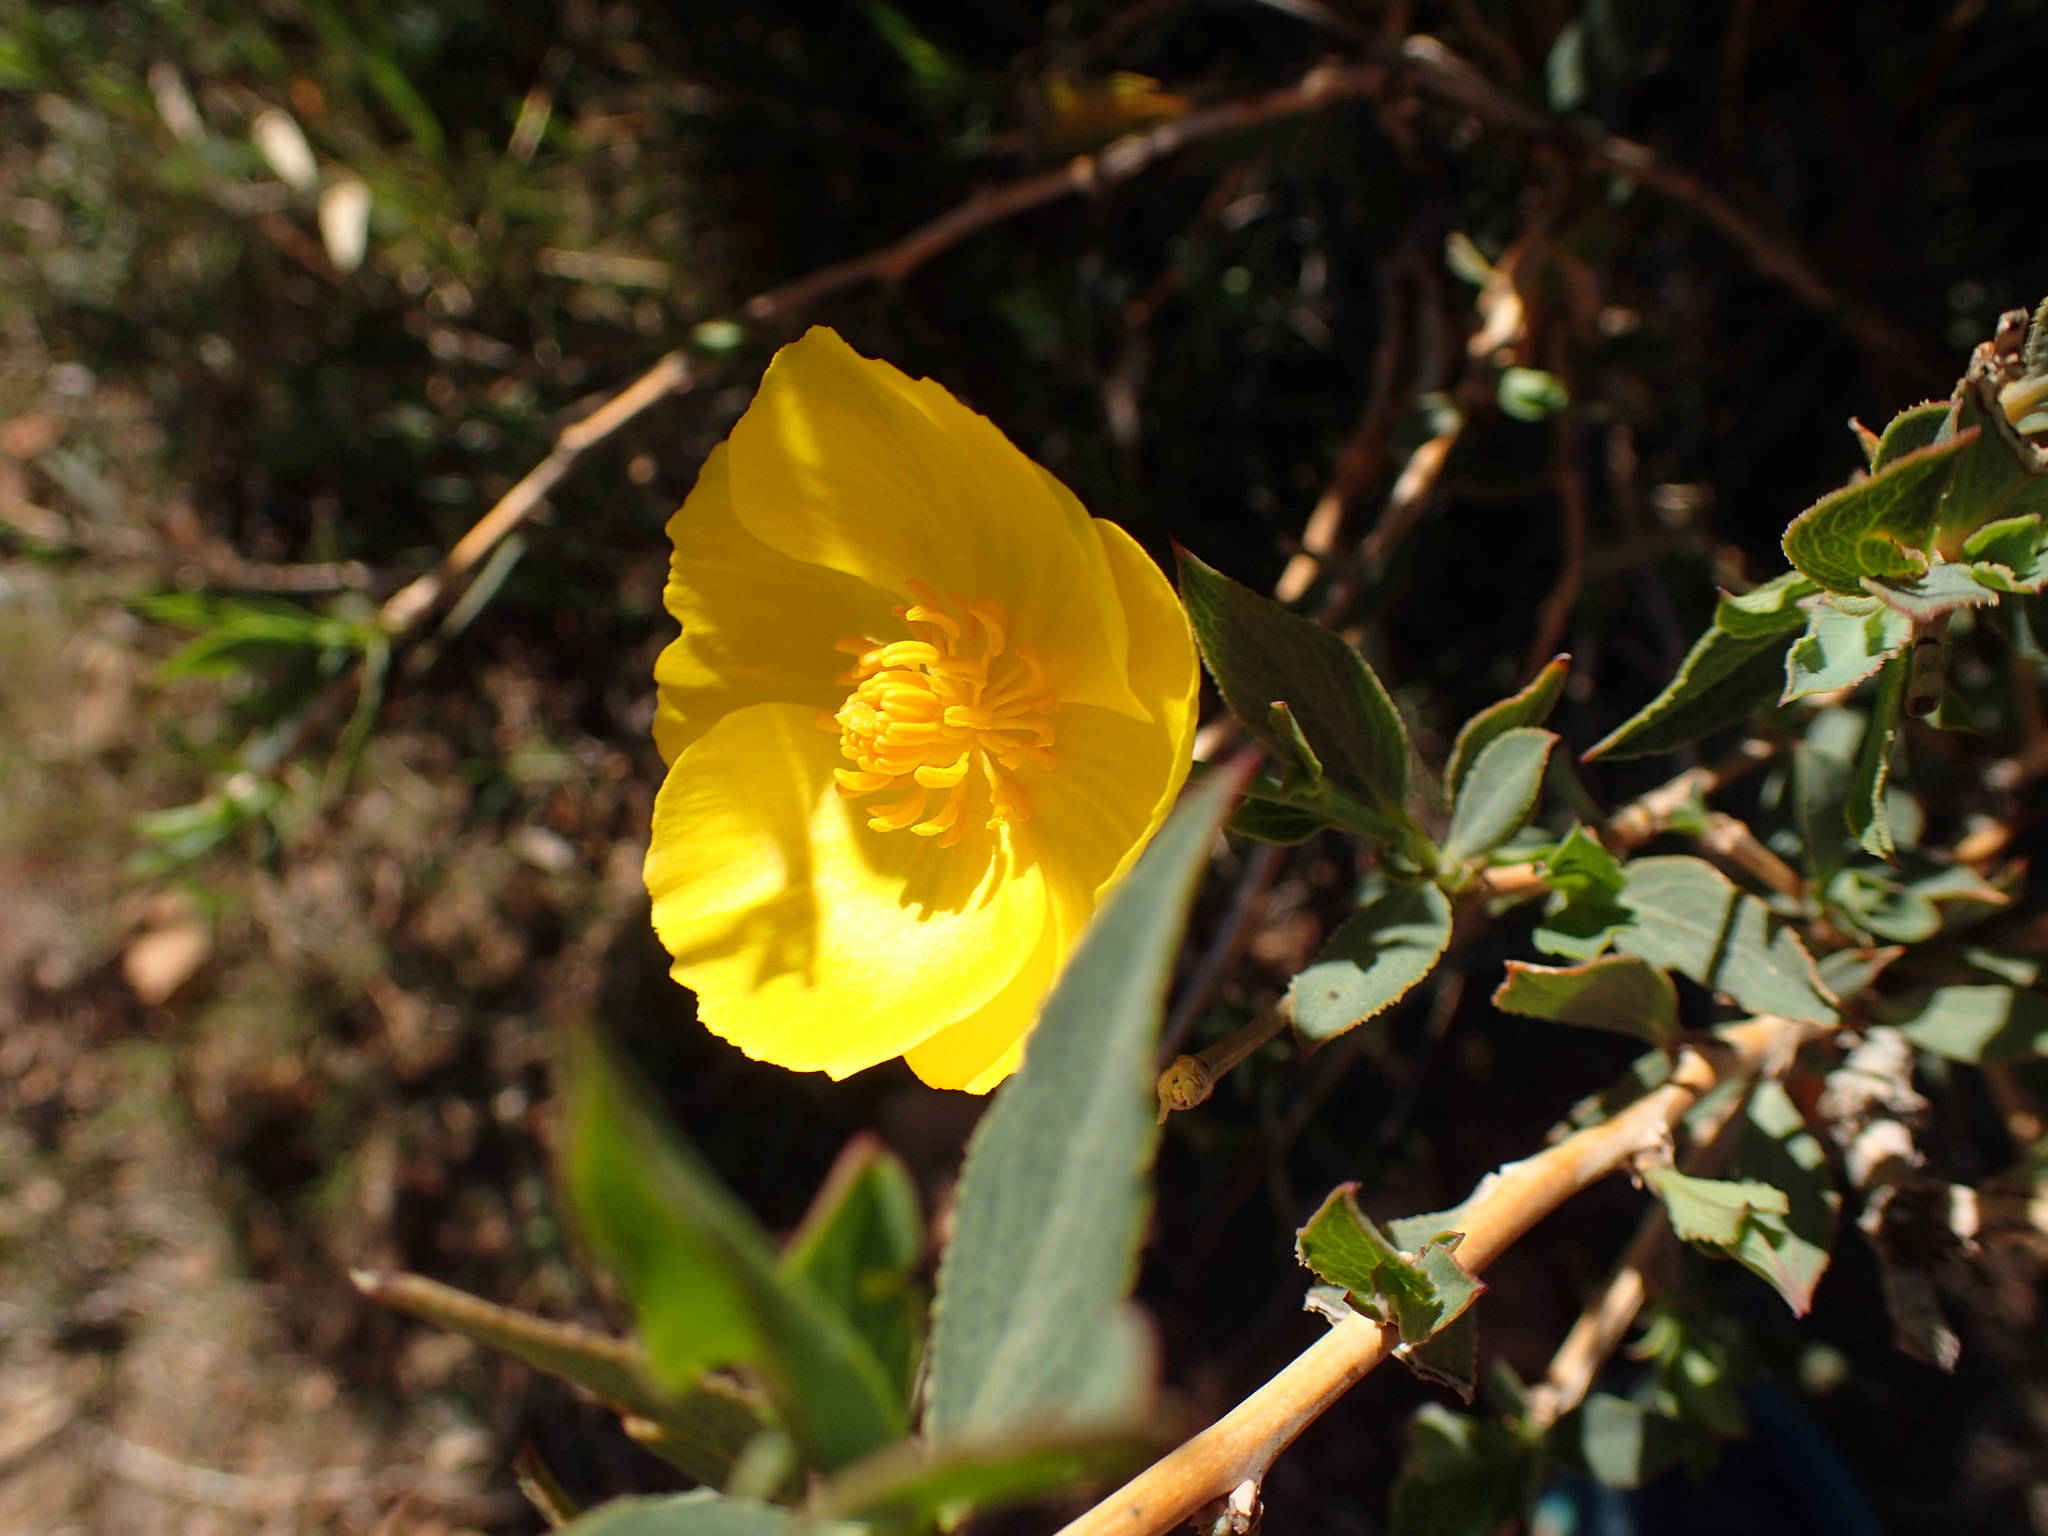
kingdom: Plantae
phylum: Tracheophyta
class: Magnoliopsida
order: Ranunculales
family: Papaveraceae
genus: Dendromecon
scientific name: Dendromecon rigida
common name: Tree poppy
